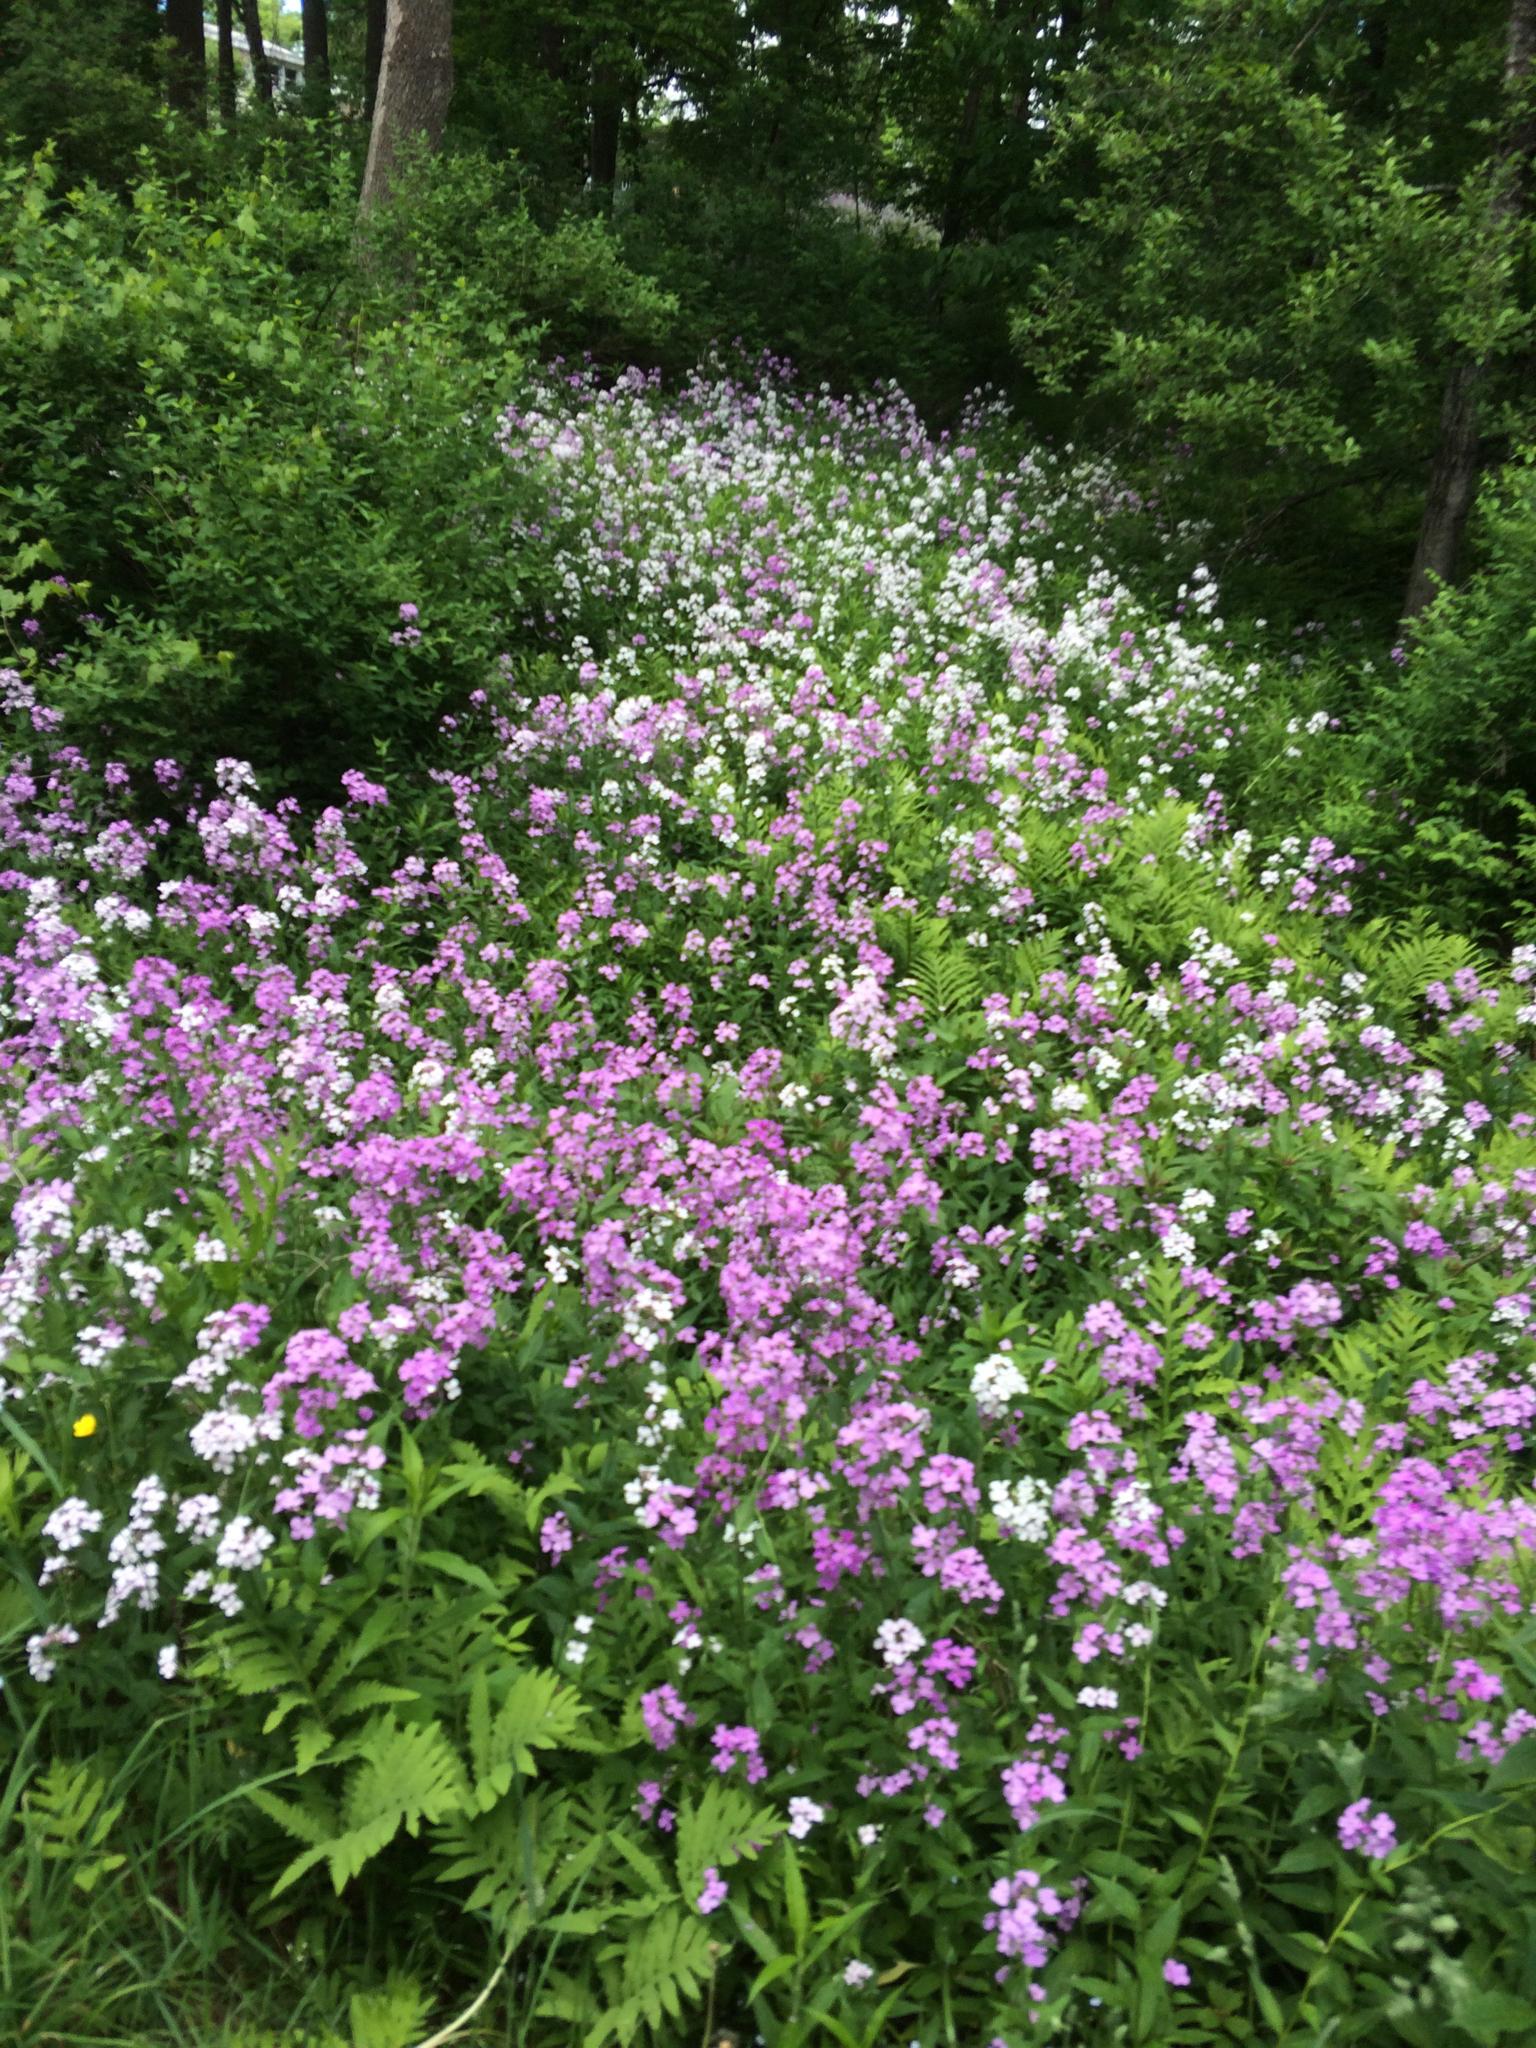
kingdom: Plantae
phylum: Tracheophyta
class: Magnoliopsida
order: Brassicales
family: Brassicaceae
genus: Hesperis
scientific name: Hesperis matronalis
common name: Dame's-violet
